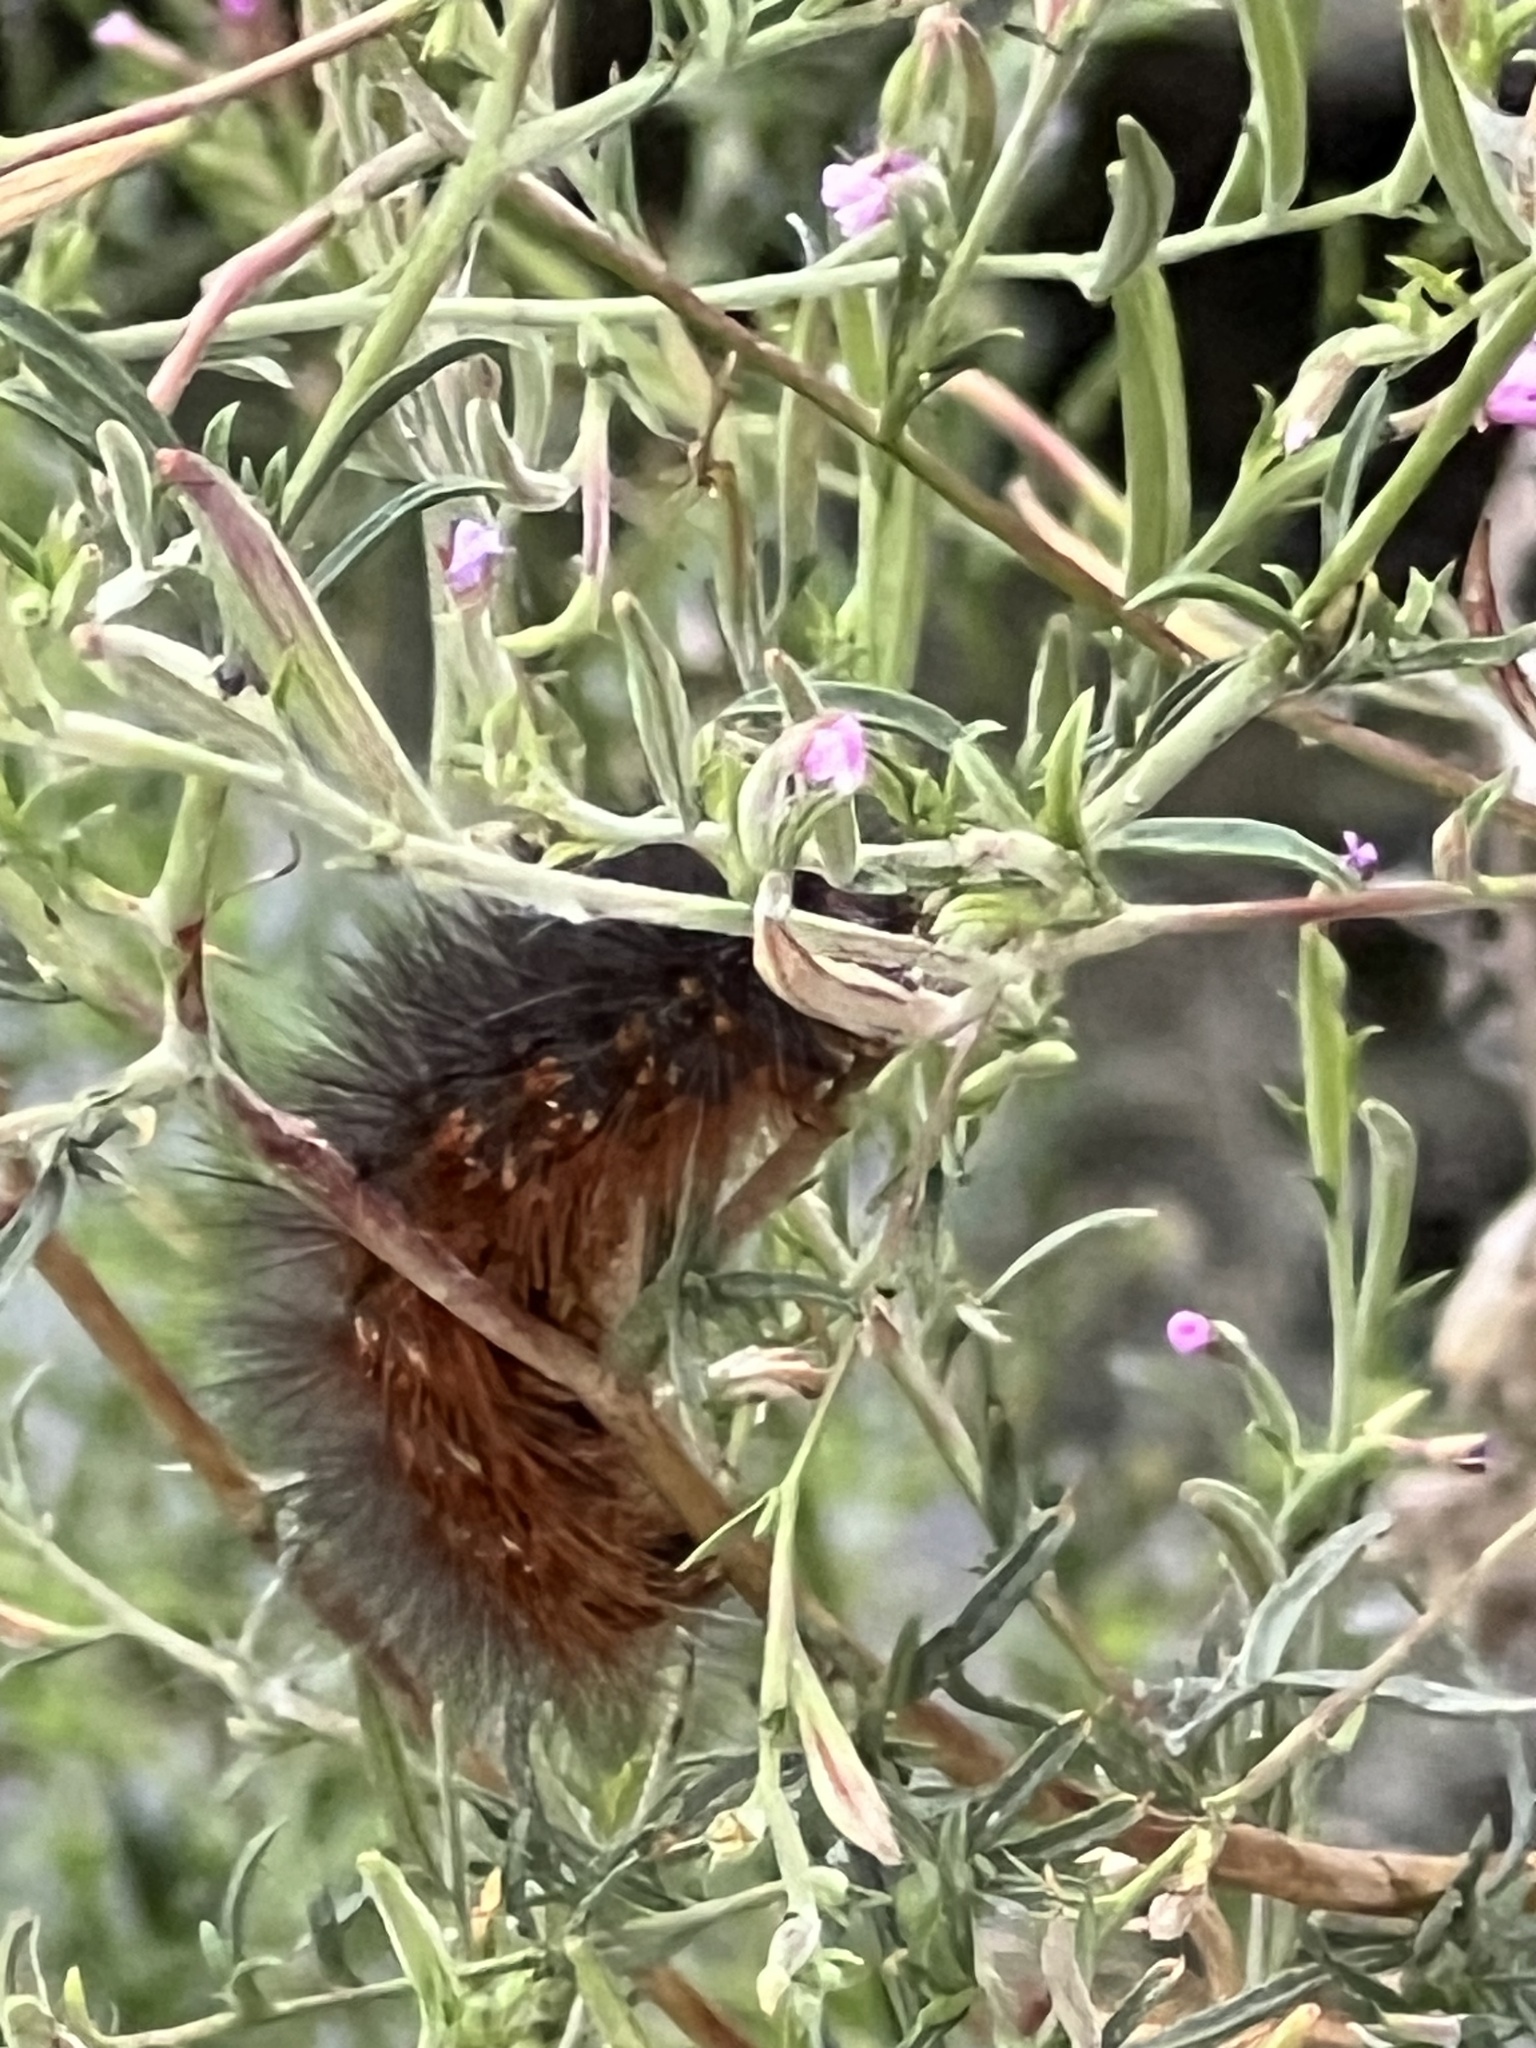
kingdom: Animalia
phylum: Arthropoda
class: Insecta
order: Lepidoptera
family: Erebidae
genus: Estigmene
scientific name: Estigmene acrea
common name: Salt marsh moth
